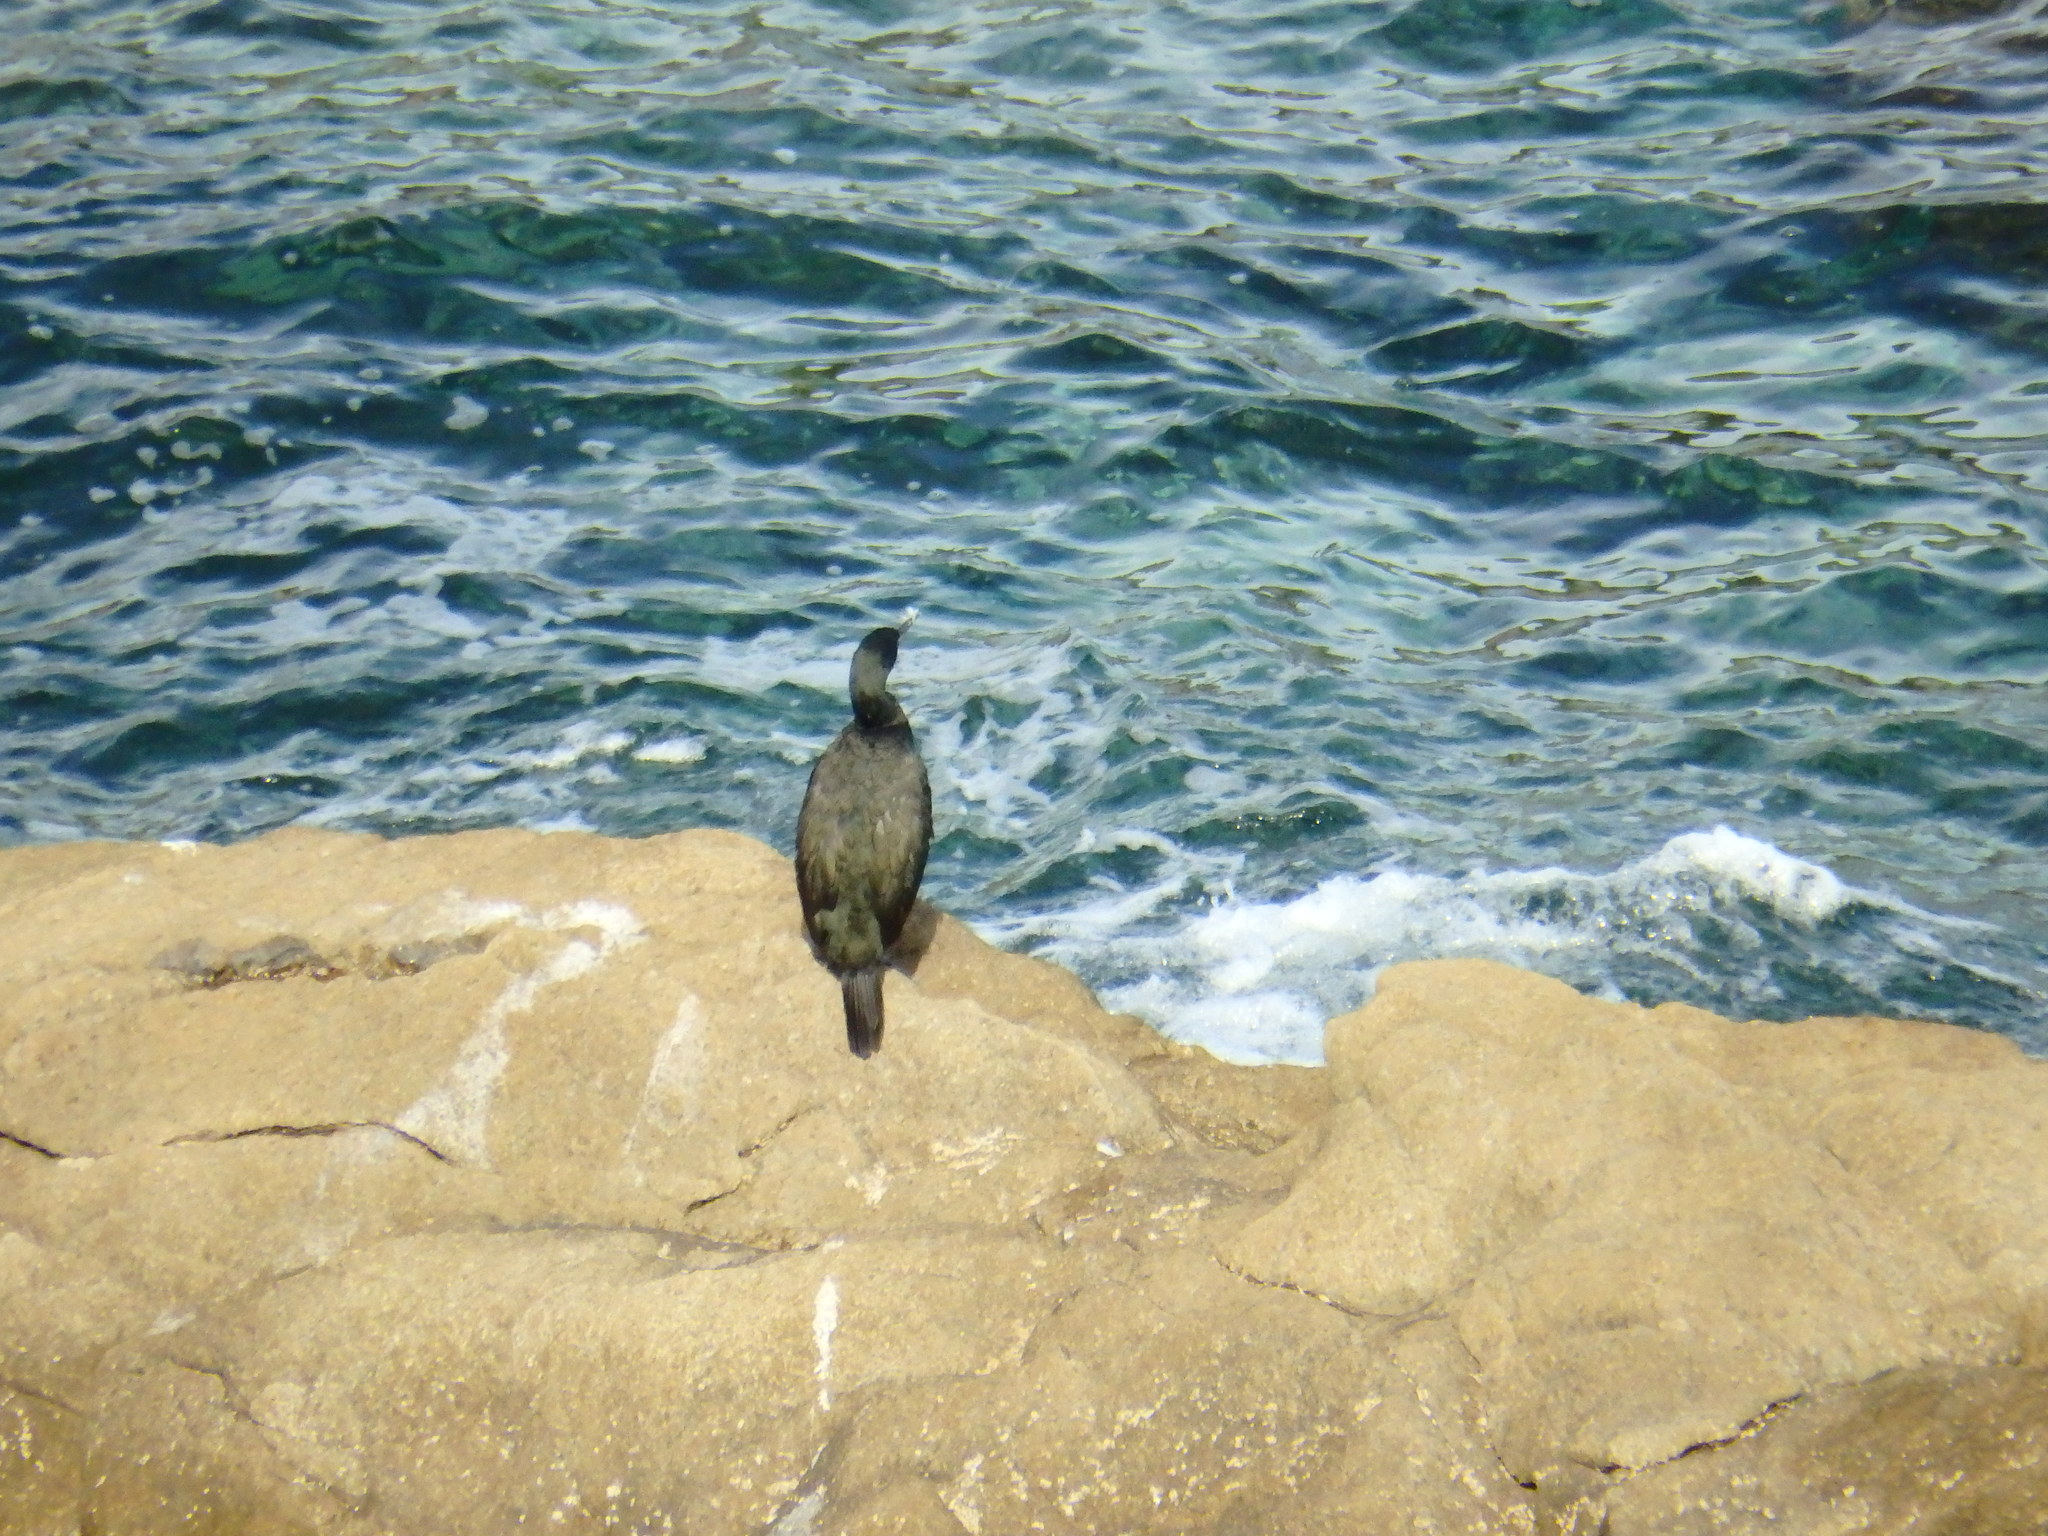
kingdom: Animalia
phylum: Chordata
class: Aves
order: Suliformes
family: Phalacrocoracidae
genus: Phalacrocorax
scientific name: Phalacrocorax aristotelis
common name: European shag
